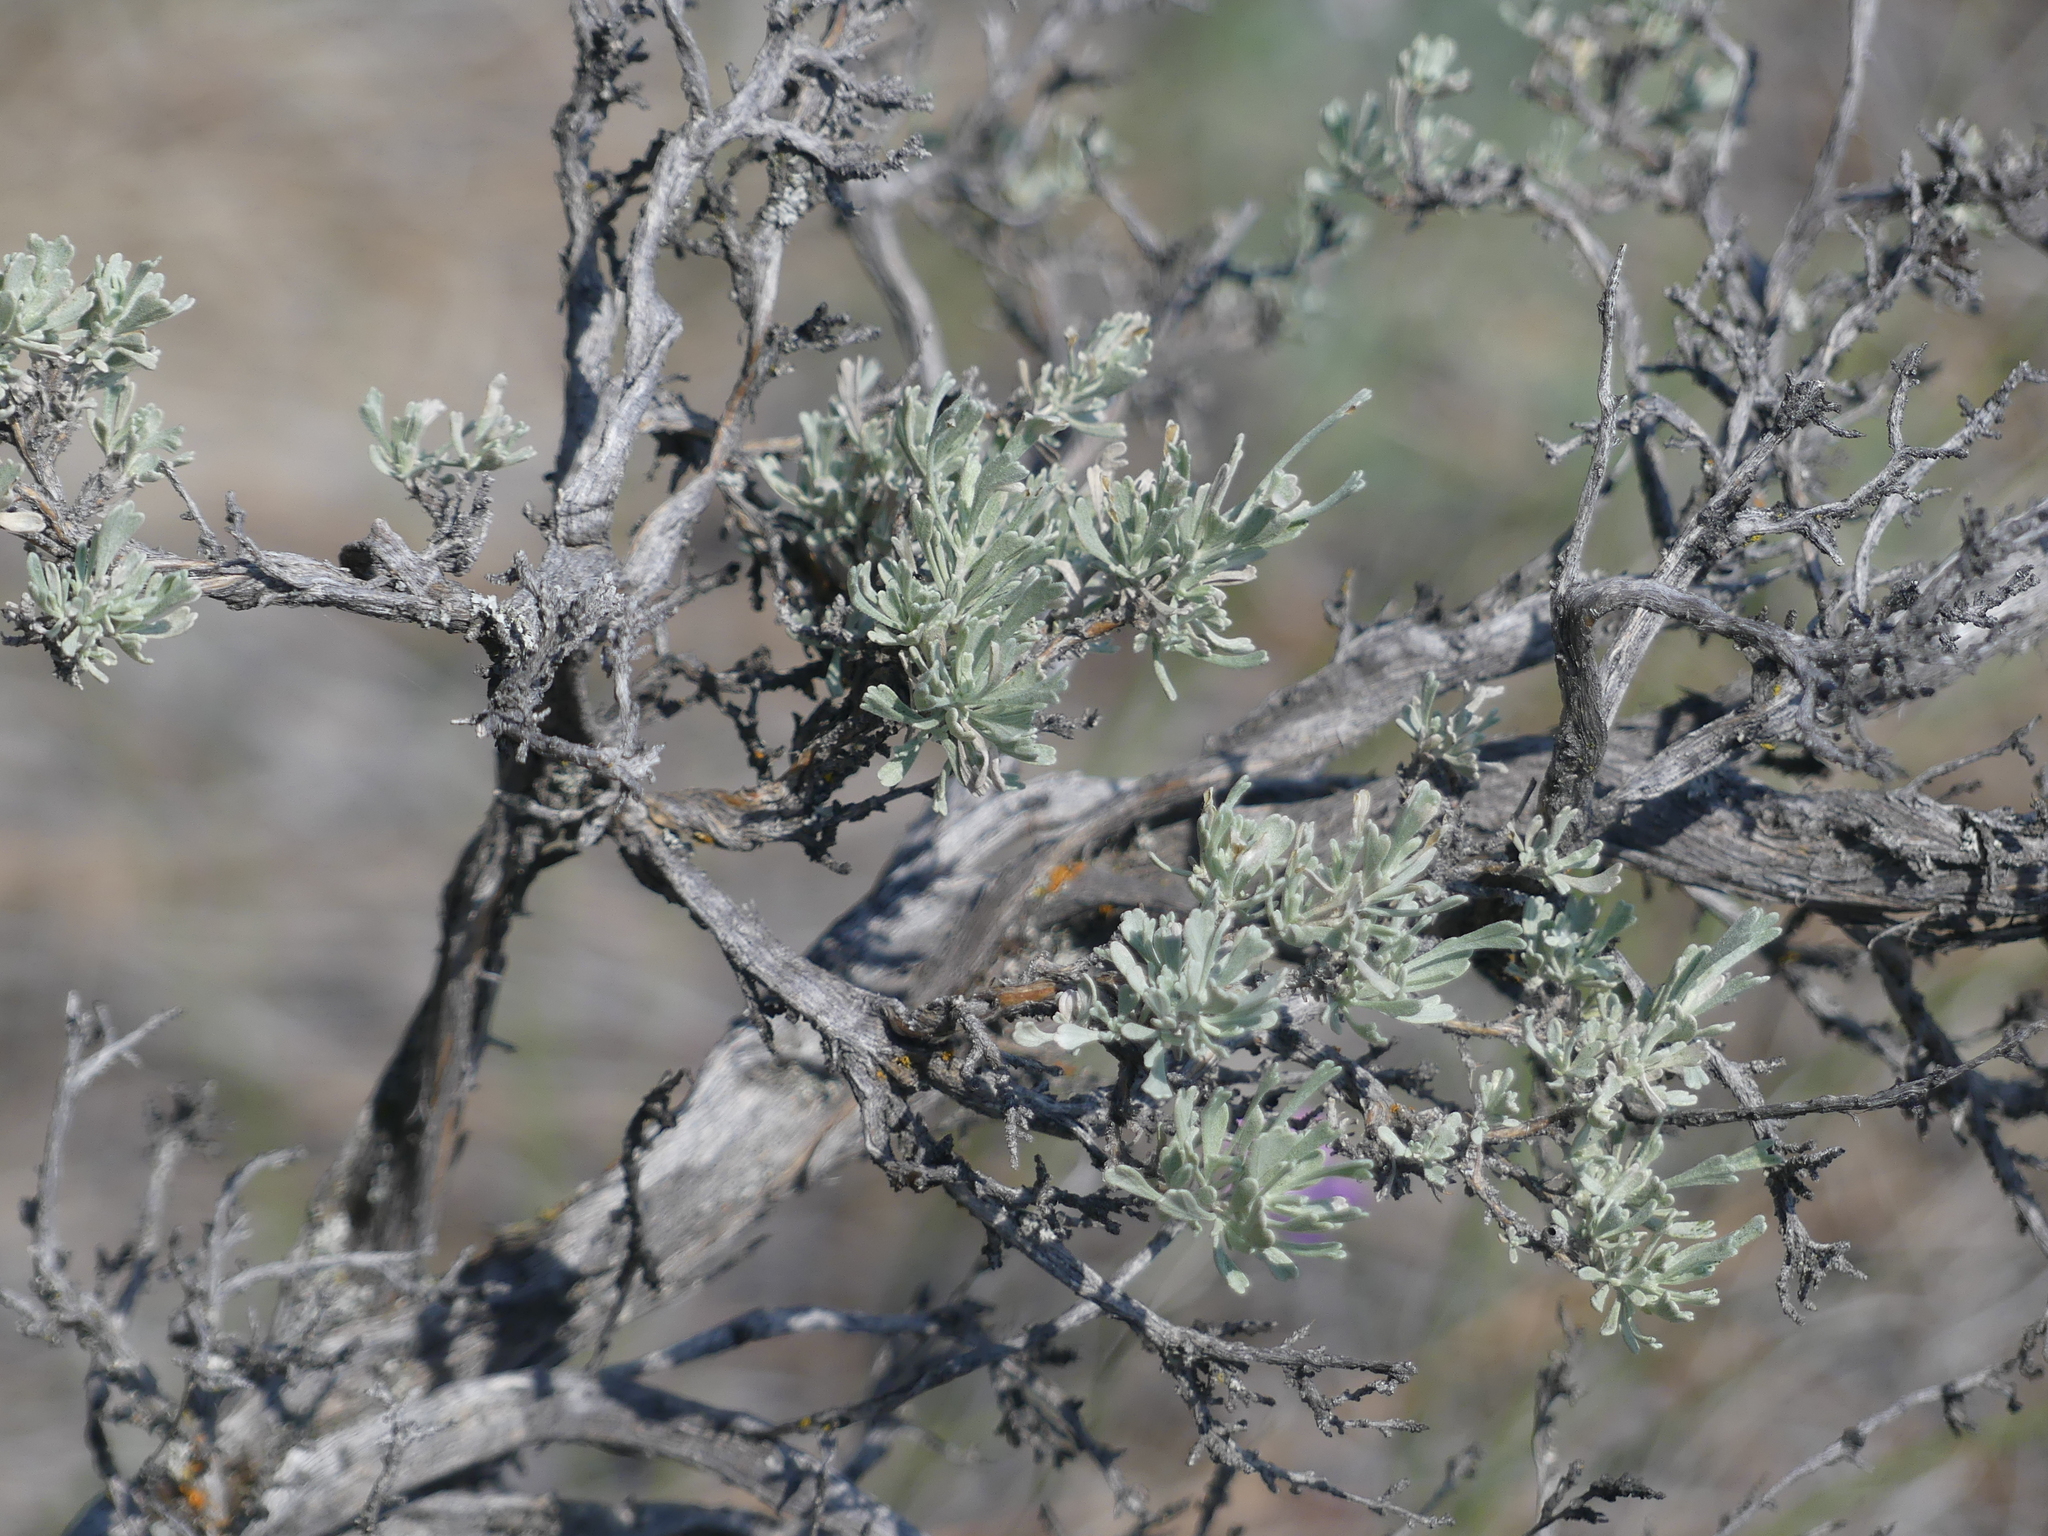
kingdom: Plantae
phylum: Tracheophyta
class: Magnoliopsida
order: Asterales
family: Asteraceae
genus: Artemisia
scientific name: Artemisia tridentata
